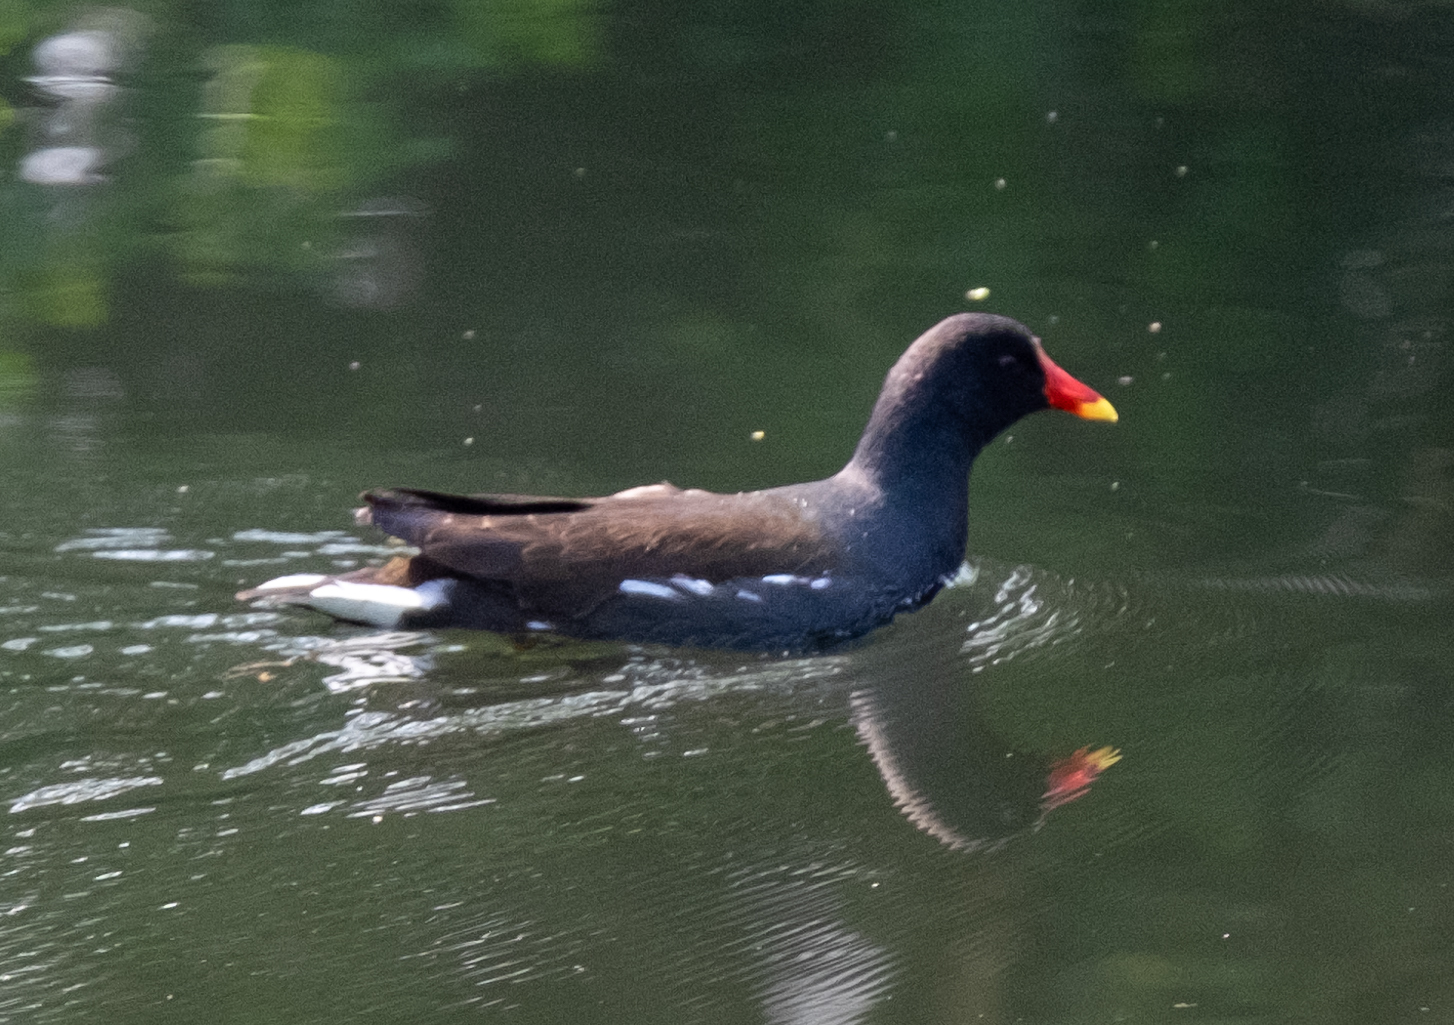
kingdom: Animalia
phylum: Chordata
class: Aves
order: Gruiformes
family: Rallidae
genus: Gallinula
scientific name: Gallinula chloropus
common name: Common moorhen
